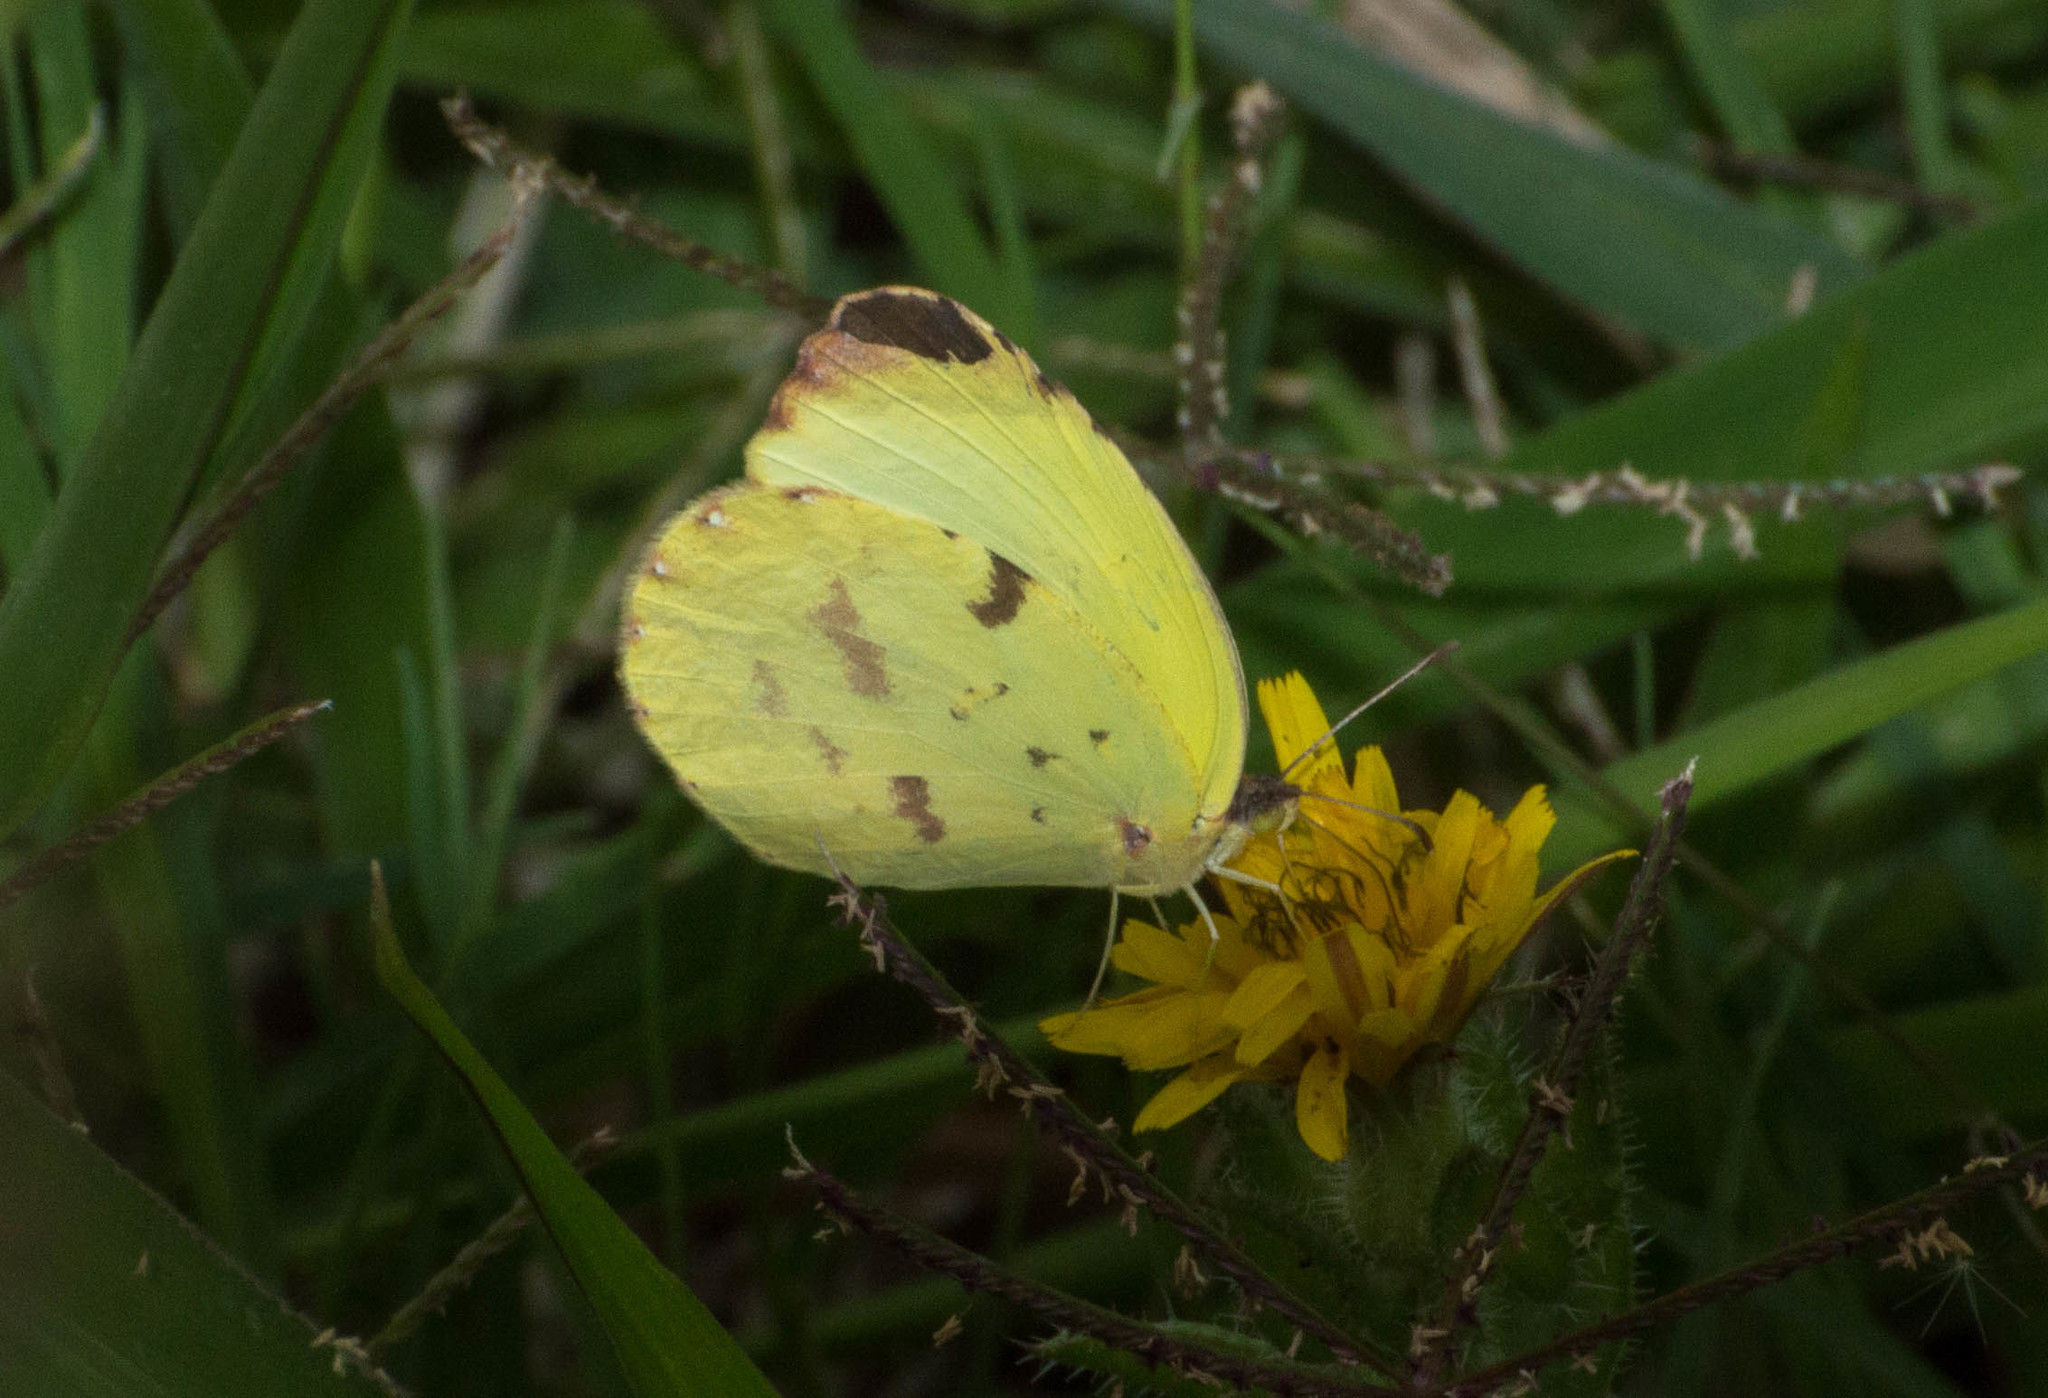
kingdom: Animalia
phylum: Arthropoda
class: Insecta
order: Lepidoptera
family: Pieridae
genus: Teriocolias
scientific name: Teriocolias
